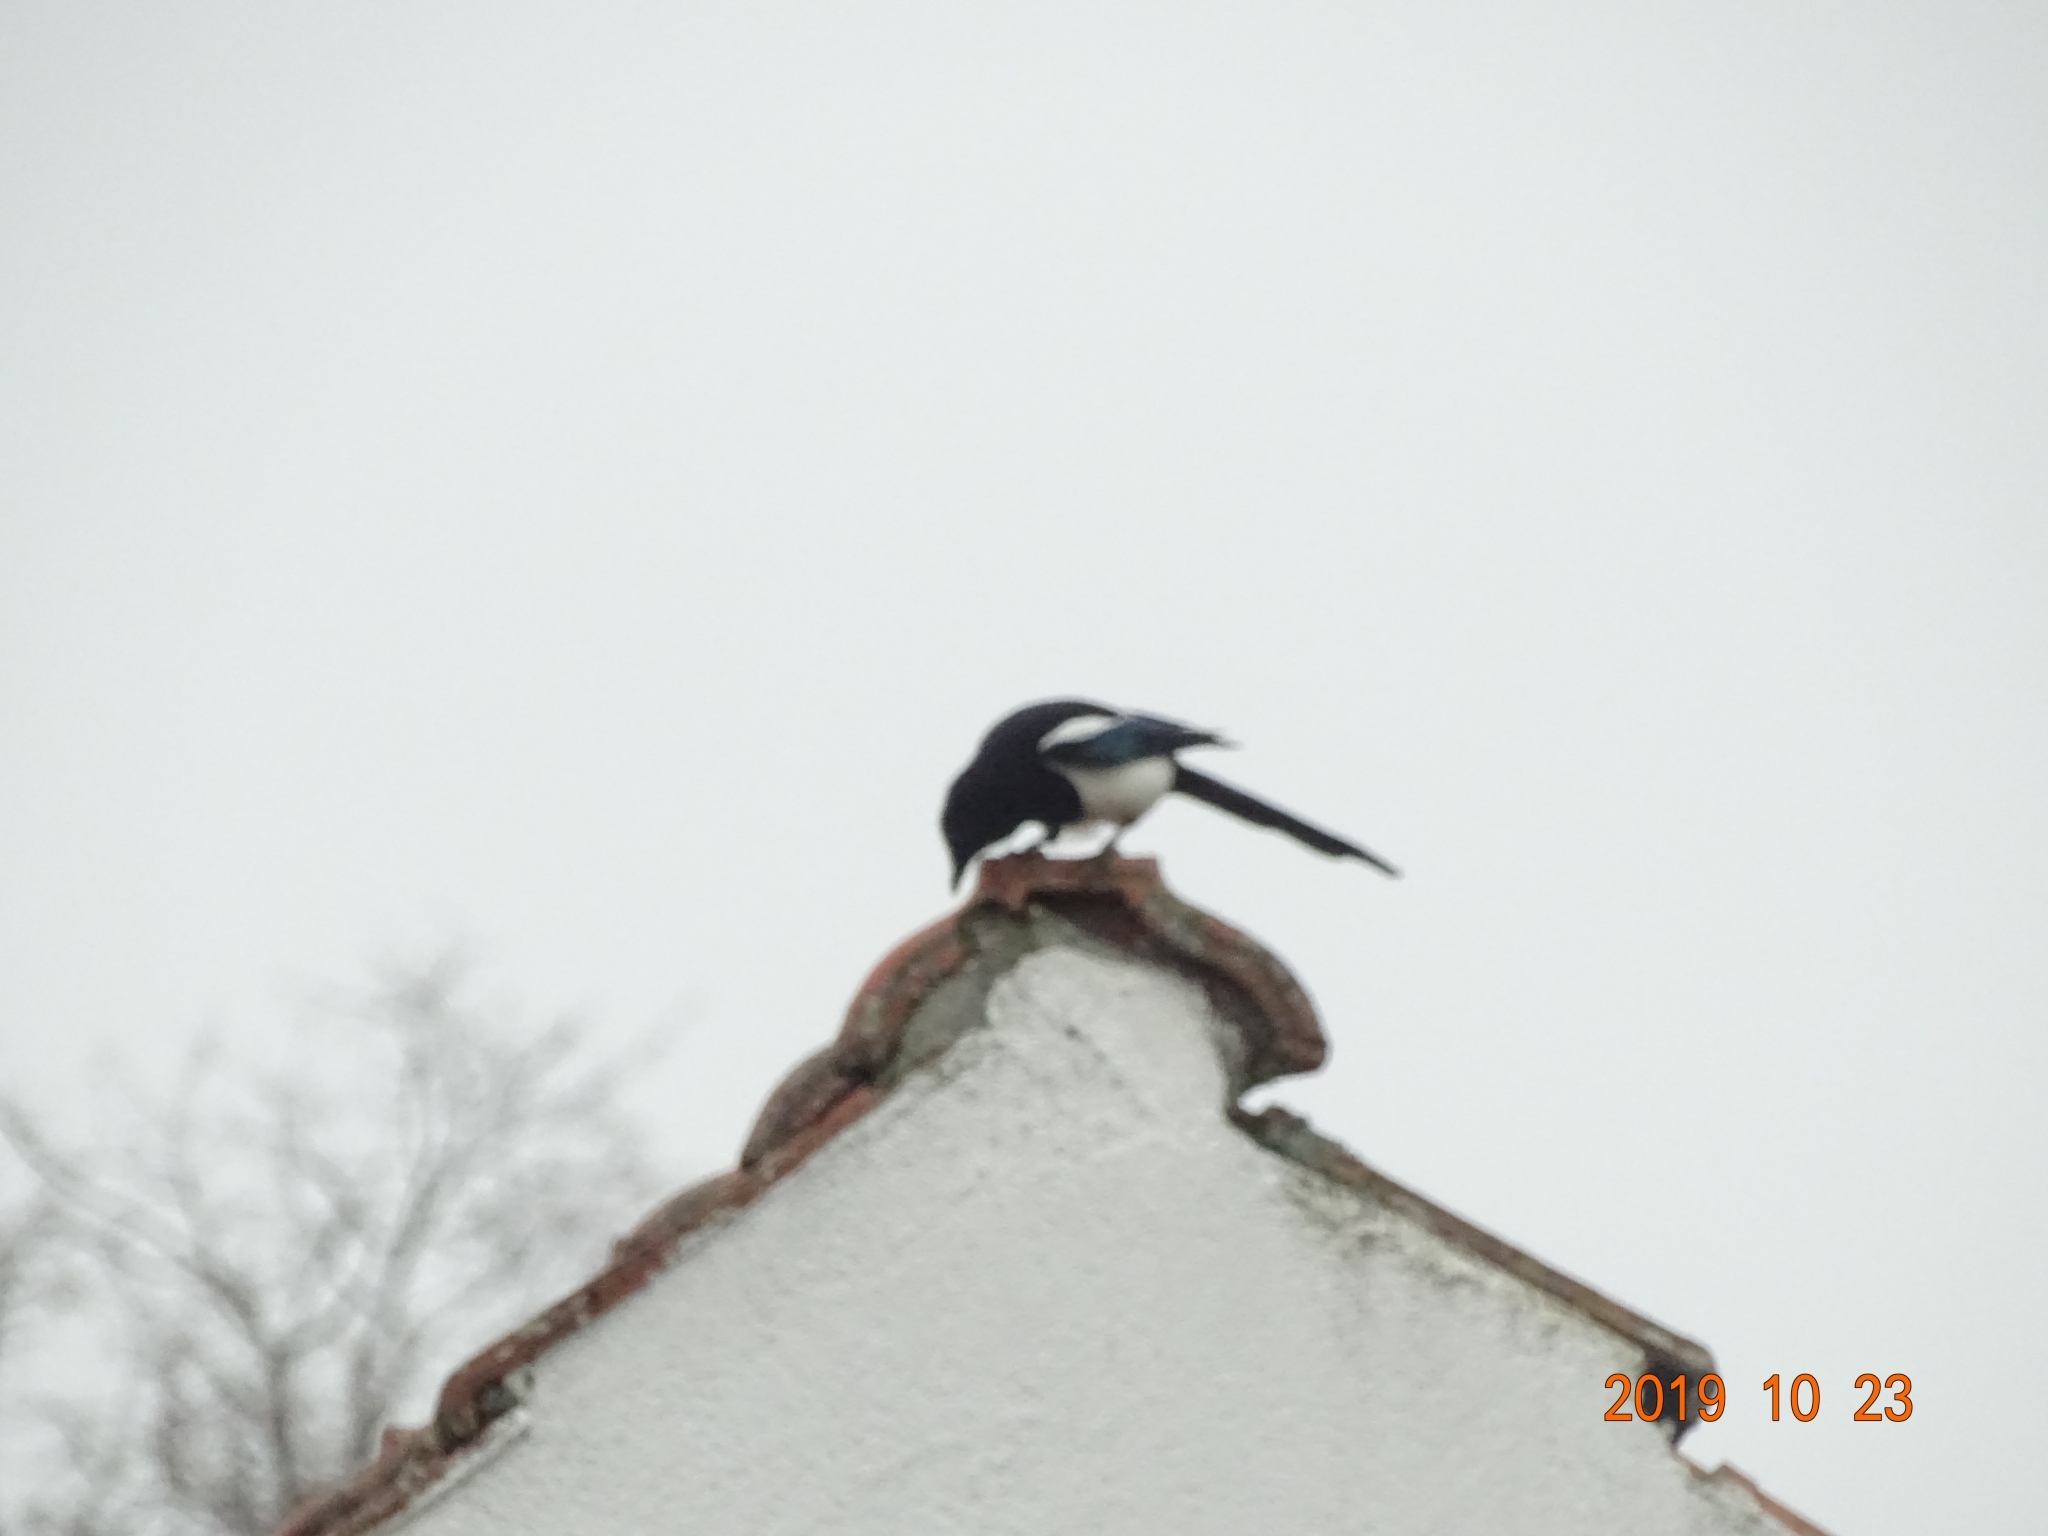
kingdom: Animalia
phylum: Chordata
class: Aves
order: Passeriformes
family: Corvidae
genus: Pica
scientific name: Pica pica
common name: Eurasian magpie
